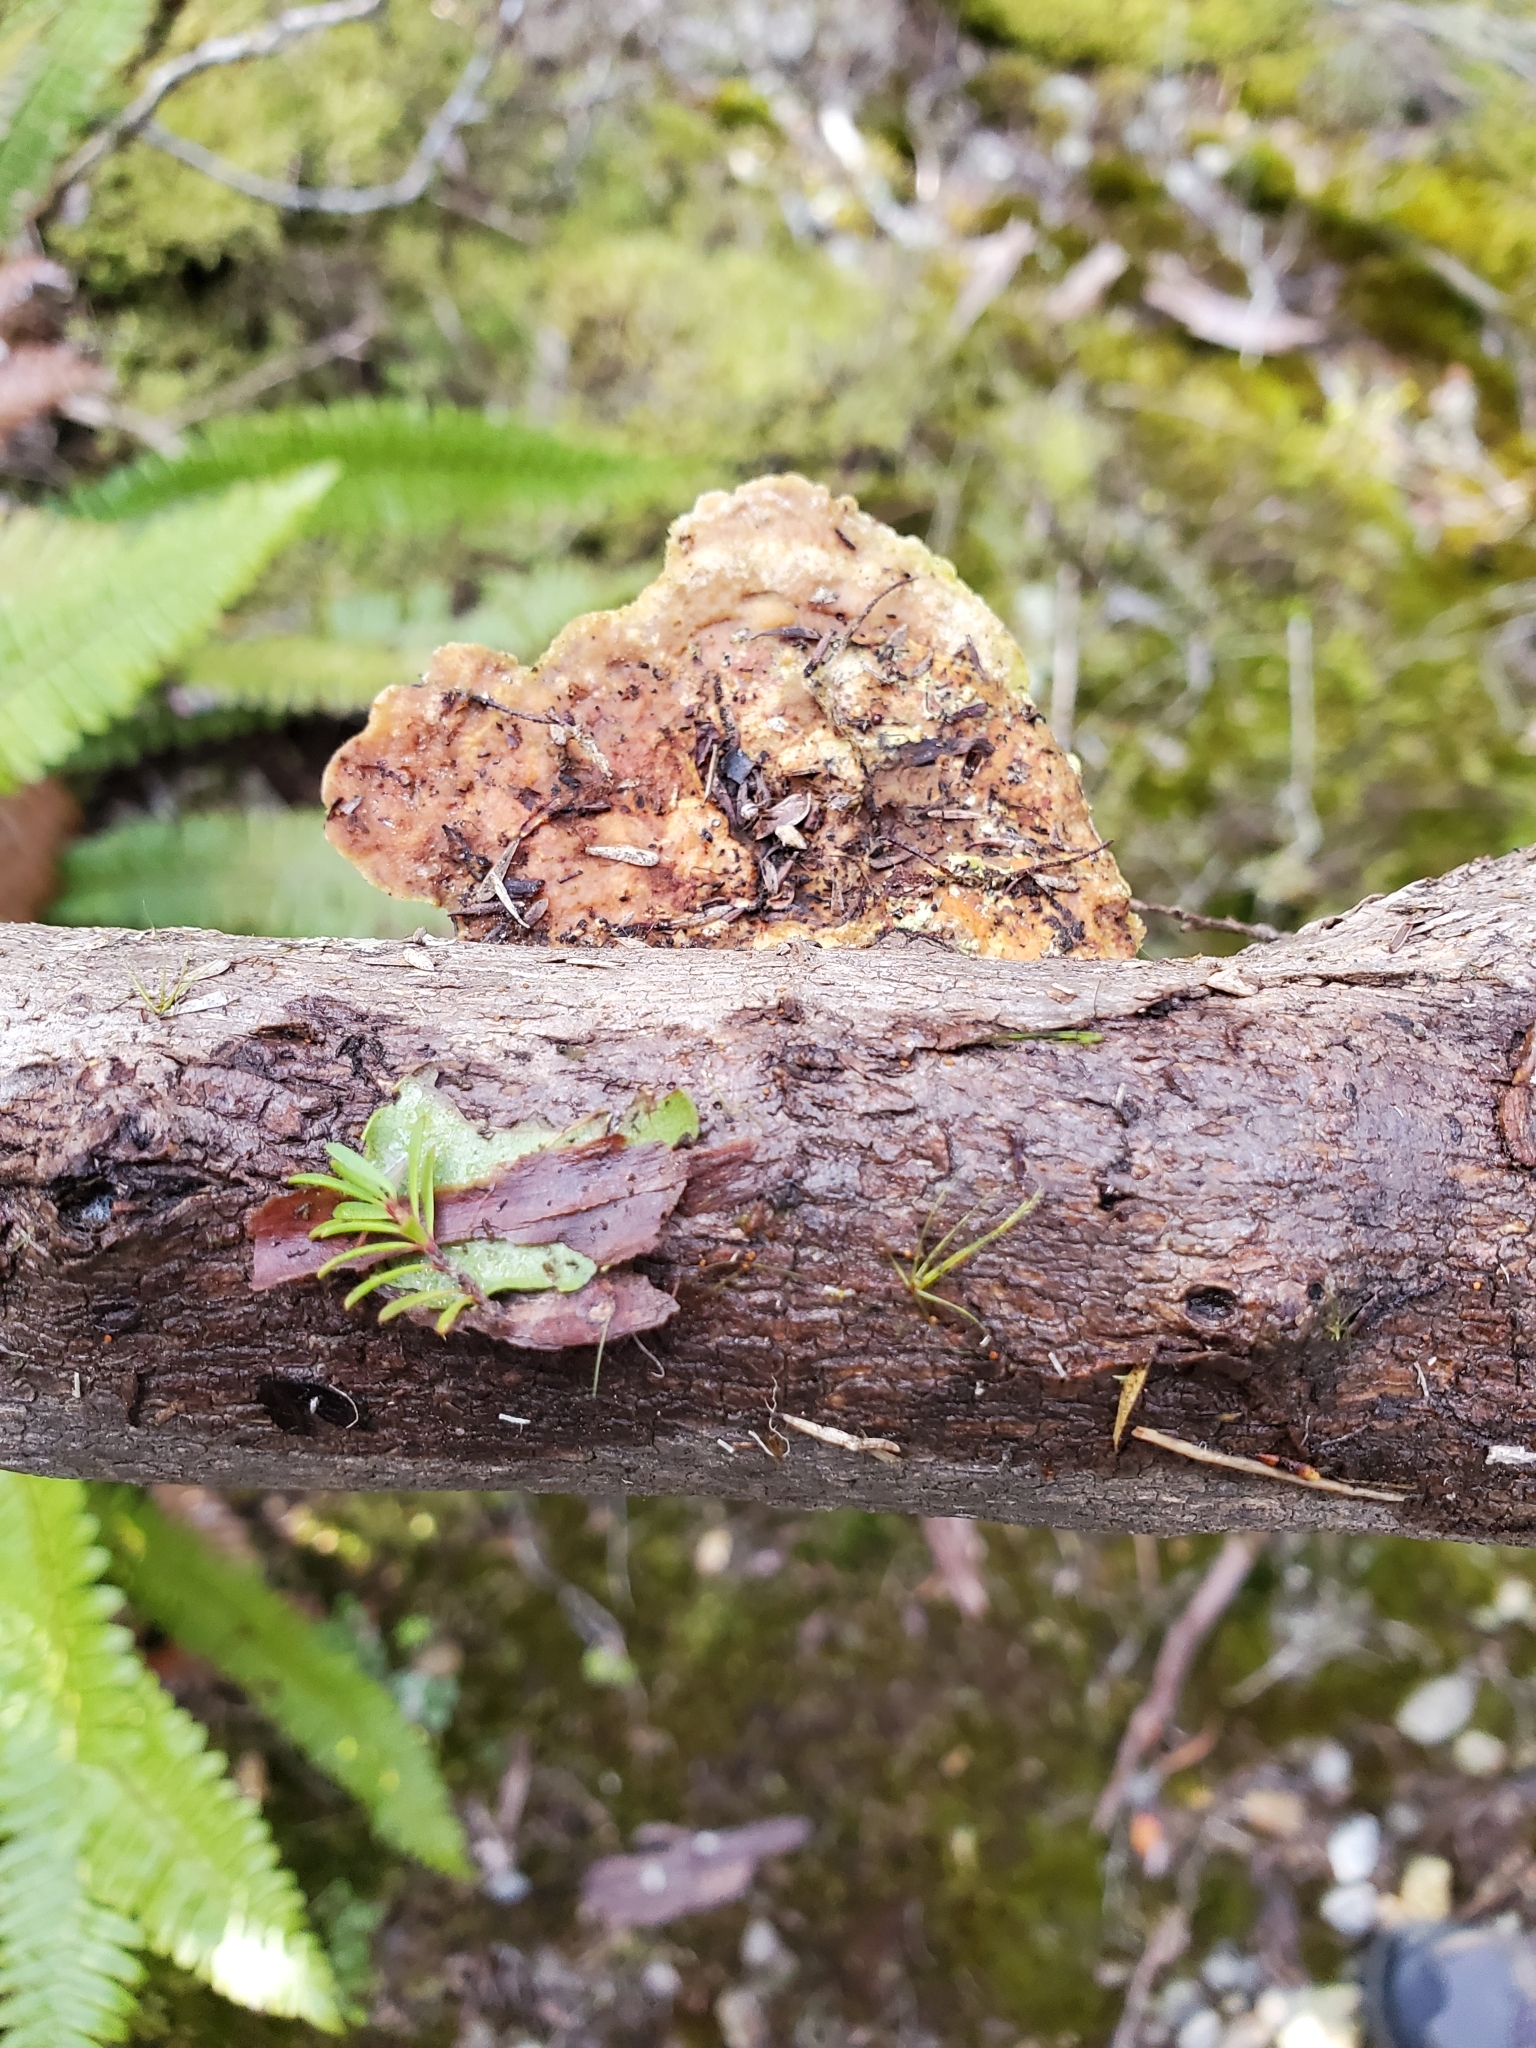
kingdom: Fungi
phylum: Basidiomycota
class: Agaricomycetes
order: Polyporales
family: Polyporaceae
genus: Trametes
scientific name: Trametes coccinea
